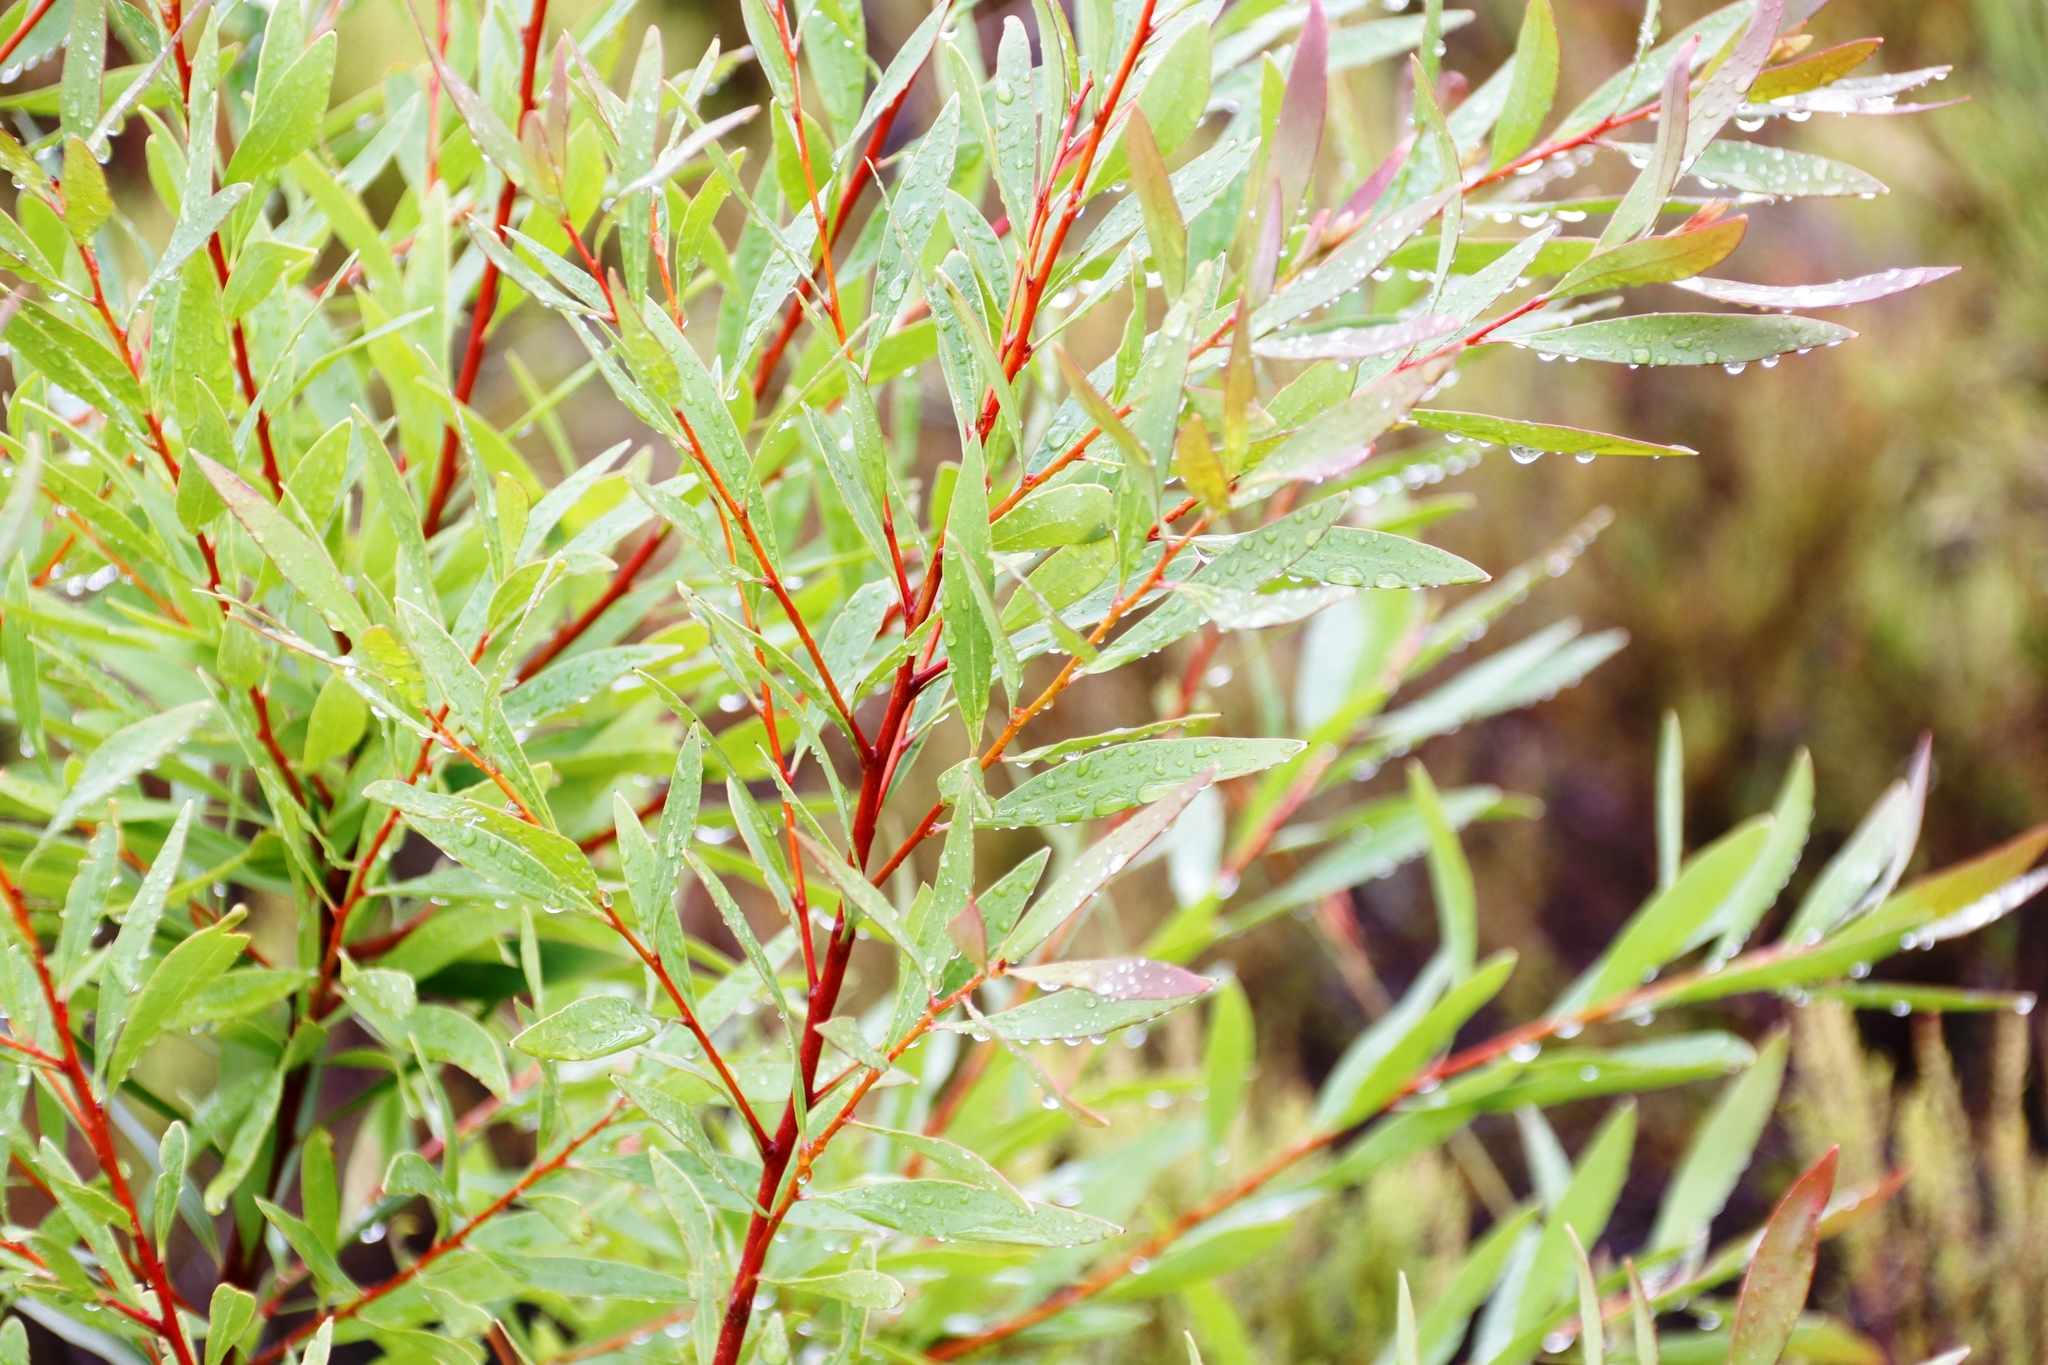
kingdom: Plantae
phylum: Tracheophyta
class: Magnoliopsida
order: Proteales
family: Proteaceae
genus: Hakea
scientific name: Hakea salicifolia
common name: Willow hakea
